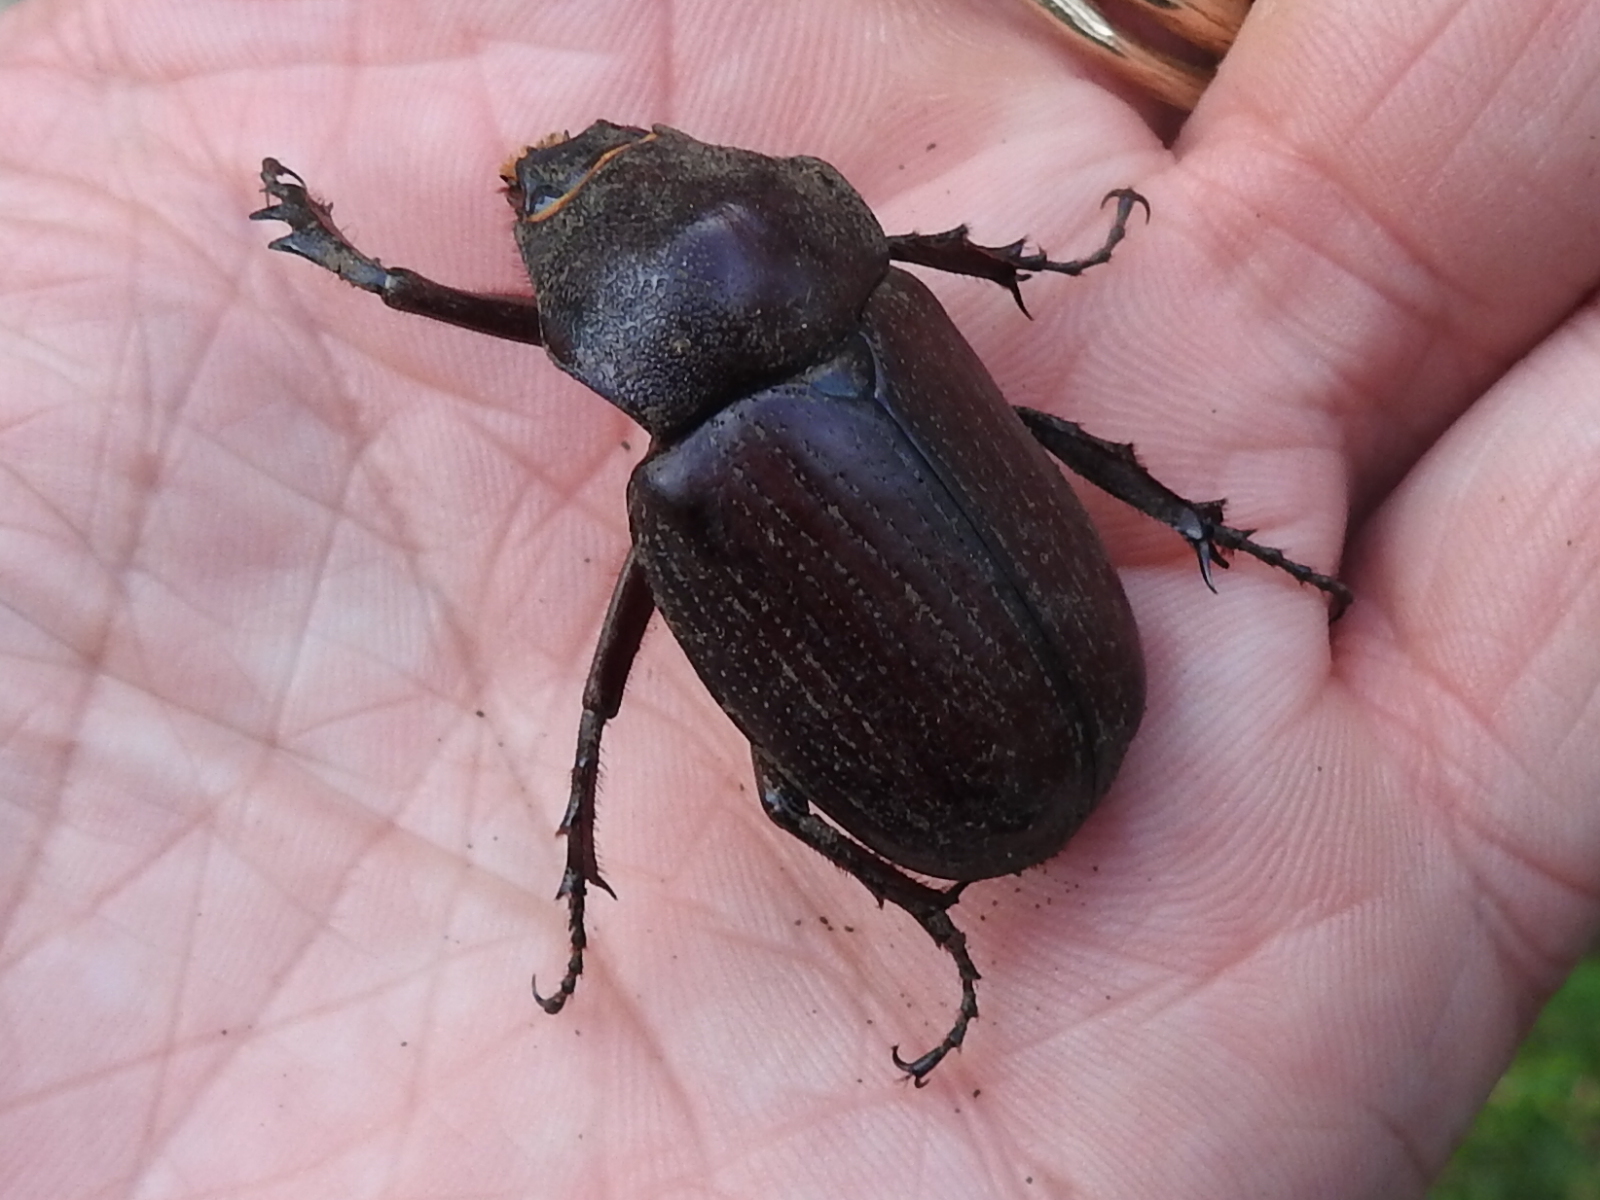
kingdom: Animalia
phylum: Arthropoda
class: Insecta
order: Coleoptera
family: Scarabaeidae
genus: Coelosis
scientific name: Coelosis biloba
